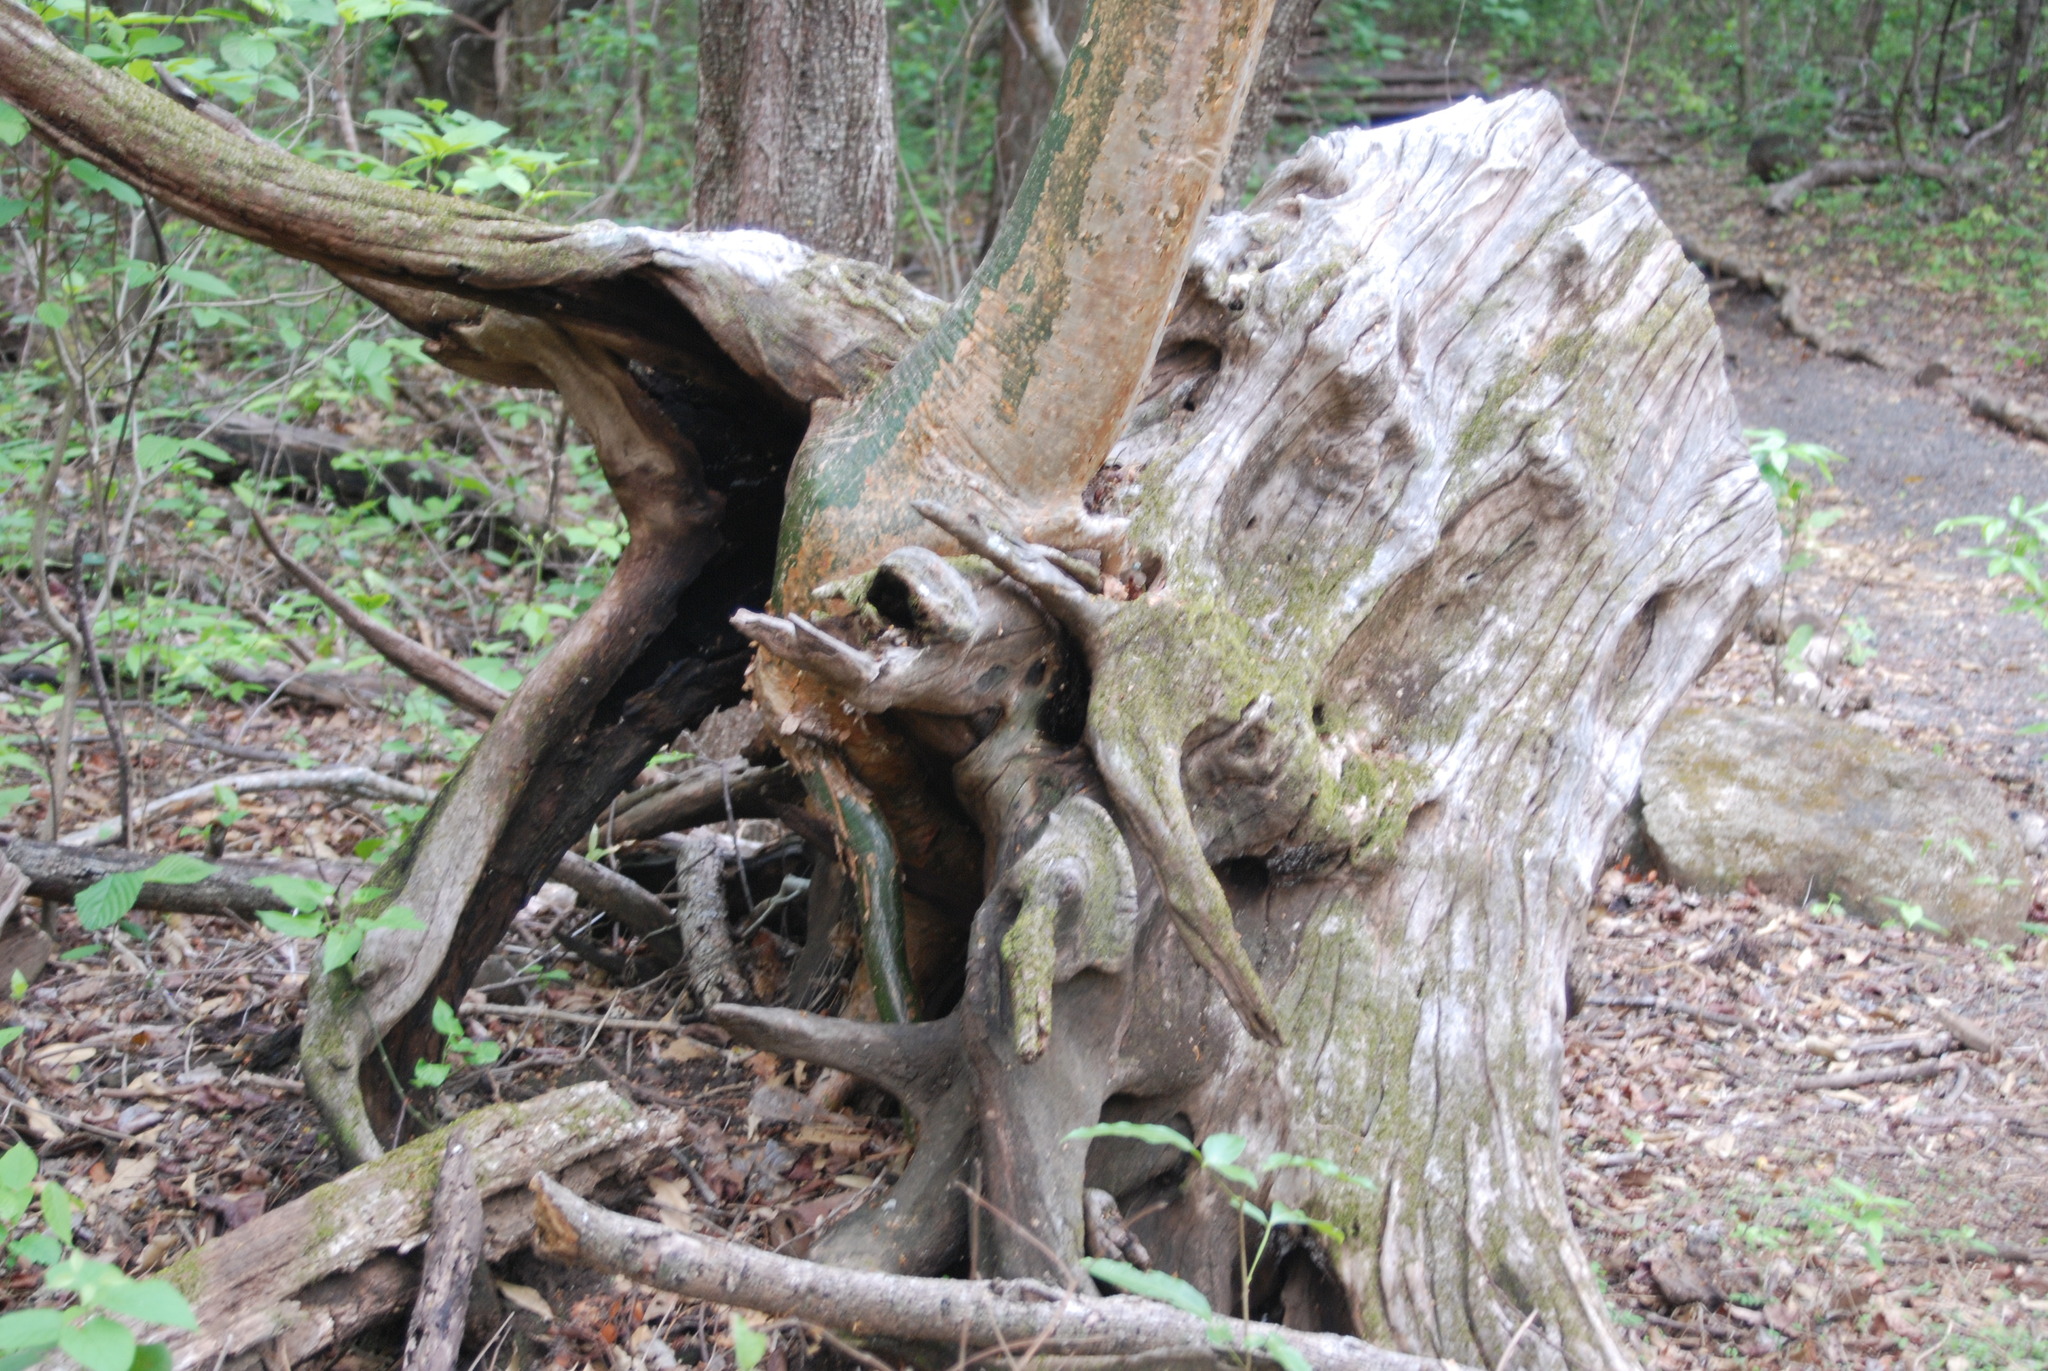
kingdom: Plantae
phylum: Tracheophyta
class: Magnoliopsida
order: Sapindales
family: Burseraceae
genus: Bursera
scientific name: Bursera simaruba
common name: Turpentine tree
